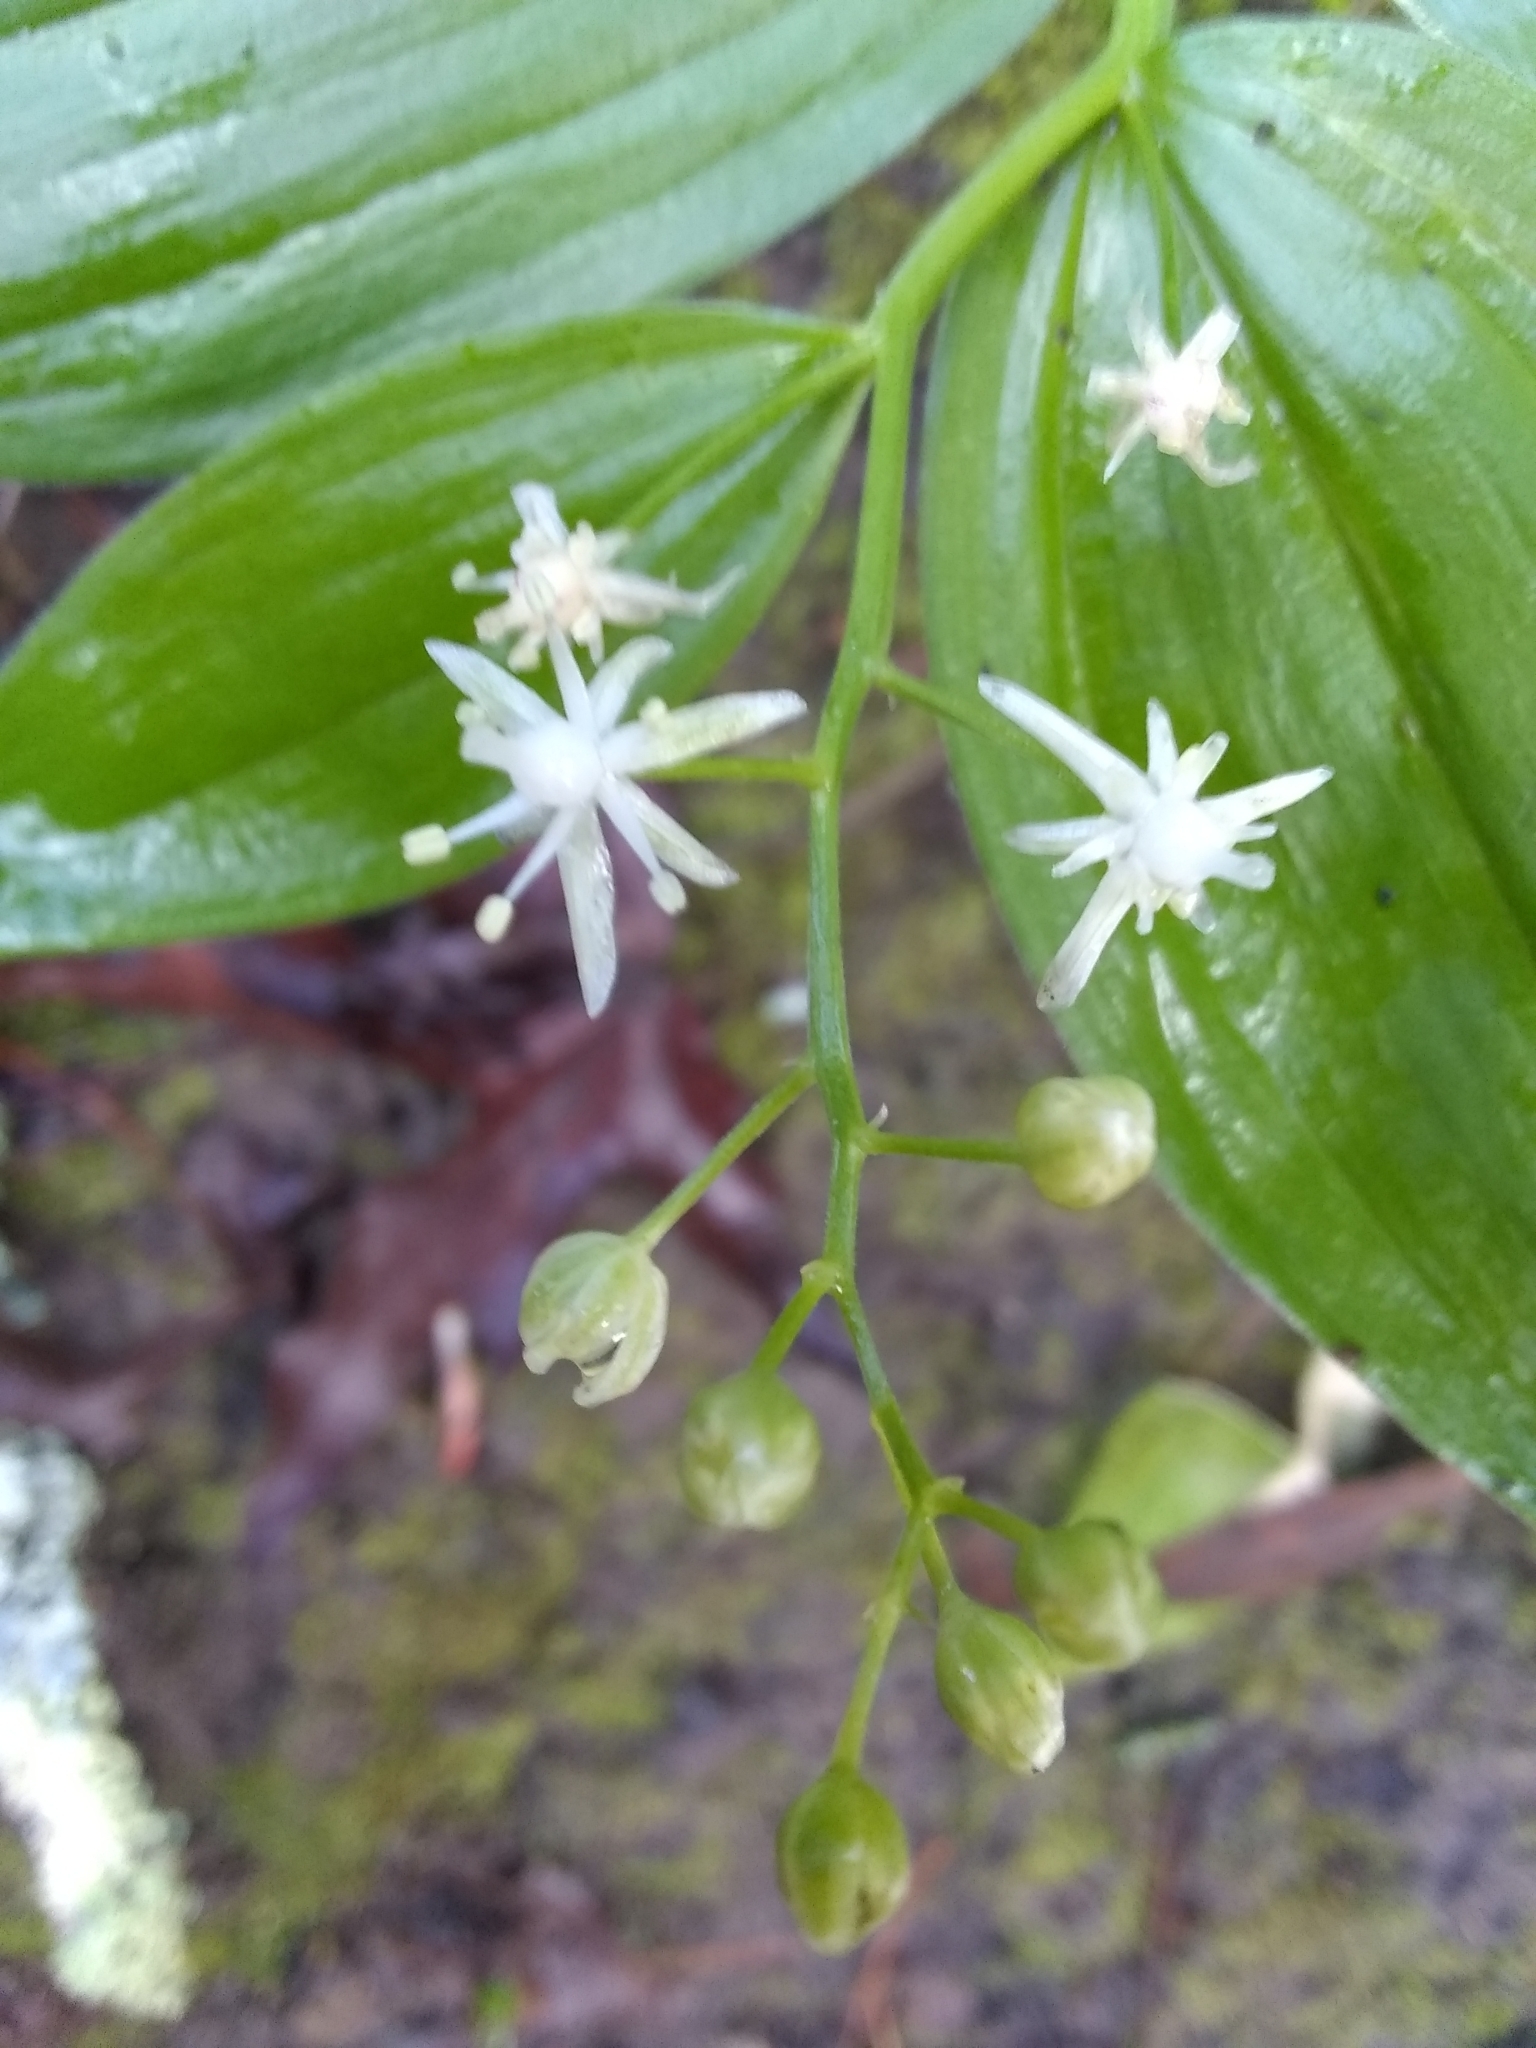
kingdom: Plantae
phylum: Tracheophyta
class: Liliopsida
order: Asparagales
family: Asparagaceae
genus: Maianthemum
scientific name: Maianthemum stellatum
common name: Little false solomon's seal
